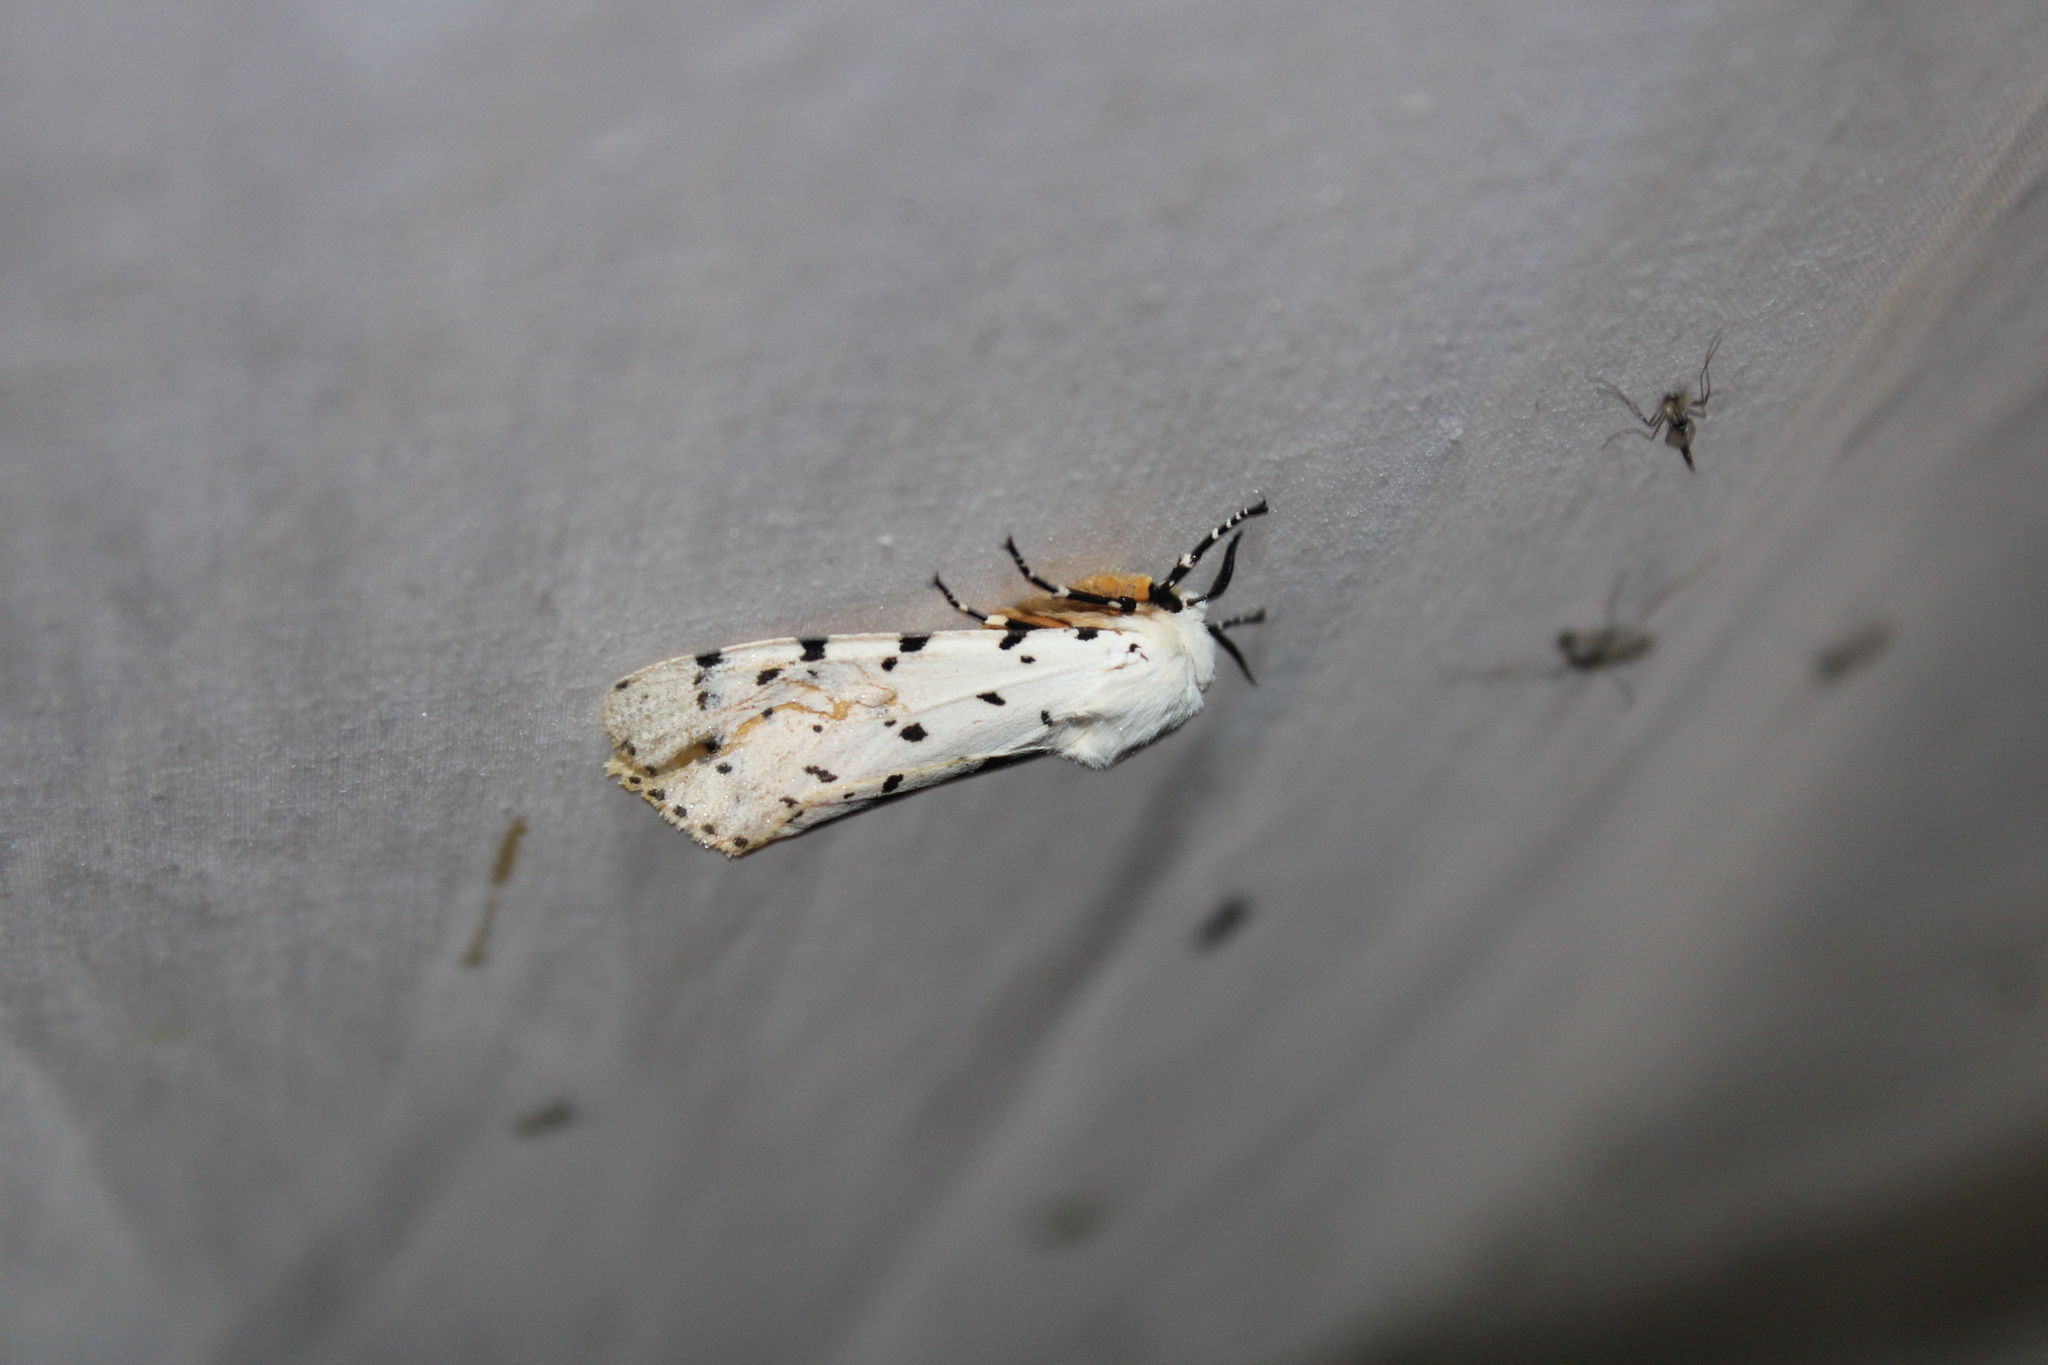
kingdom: Animalia
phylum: Arthropoda
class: Insecta
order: Lepidoptera
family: Erebidae
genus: Estigmene
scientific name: Estigmene acrea
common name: Salt marsh moth
